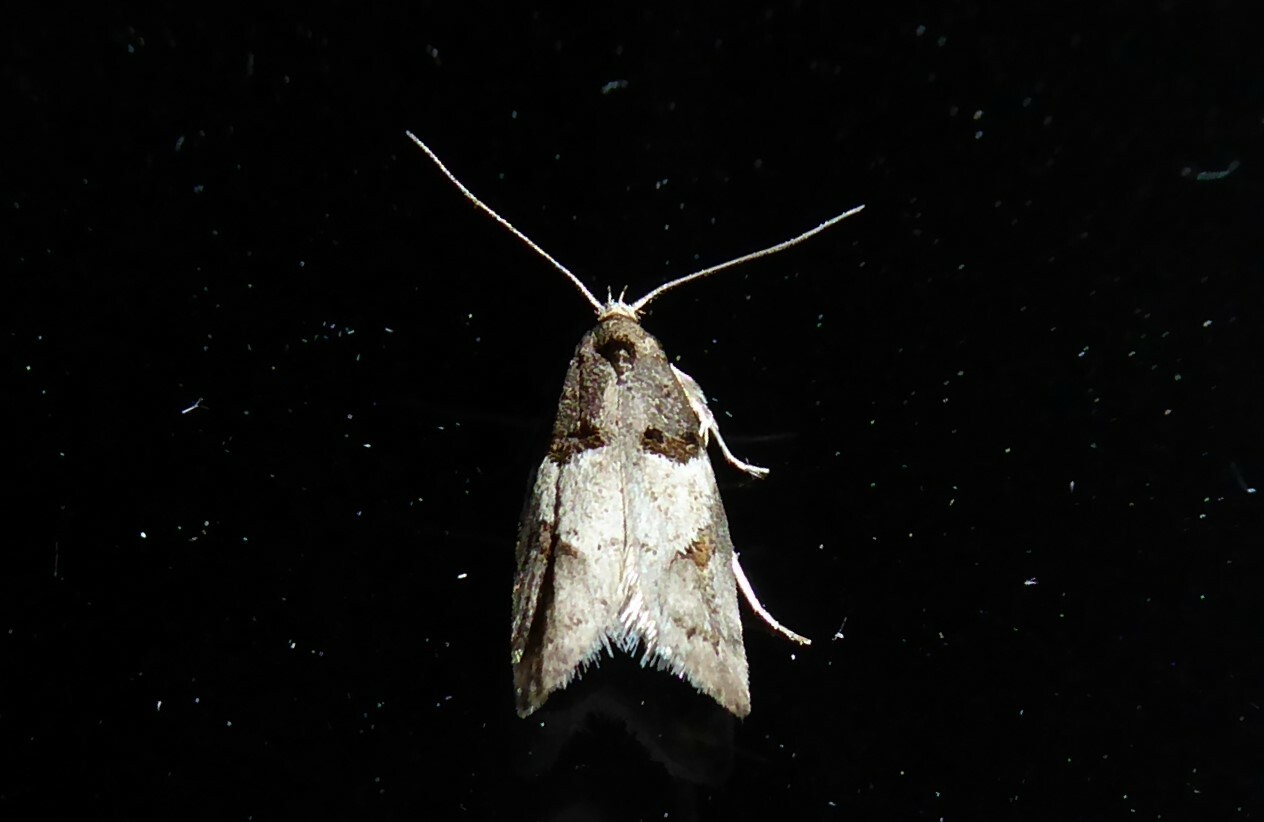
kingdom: Animalia
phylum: Arthropoda
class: Insecta
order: Lepidoptera
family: Oecophoridae
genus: Trachypepla
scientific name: Trachypepla contritella
